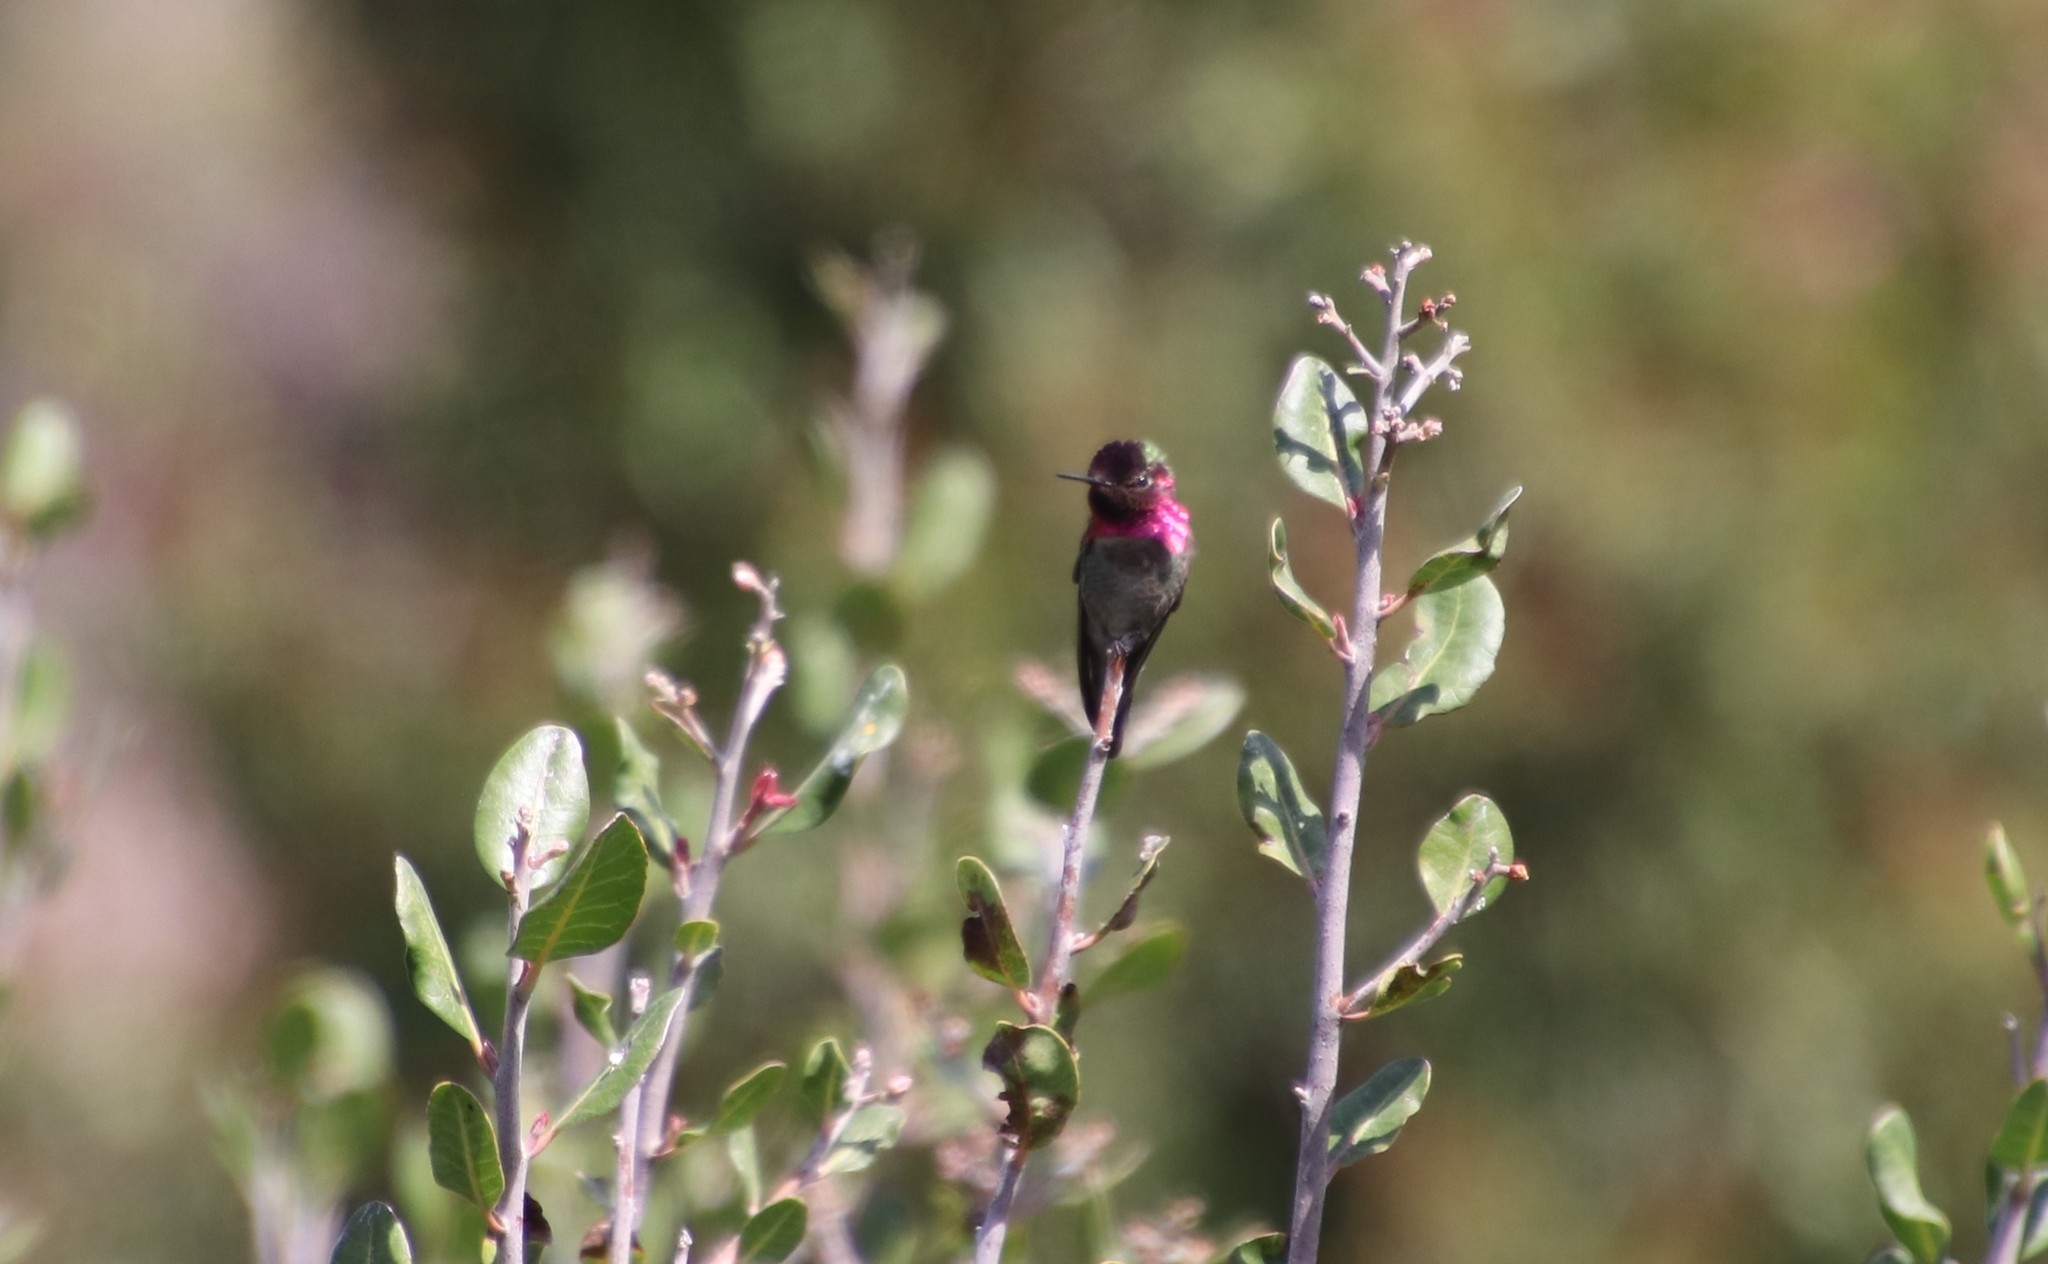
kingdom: Animalia
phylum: Chordata
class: Aves
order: Apodiformes
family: Trochilidae
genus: Calypte
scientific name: Calypte anna
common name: Anna's hummingbird
